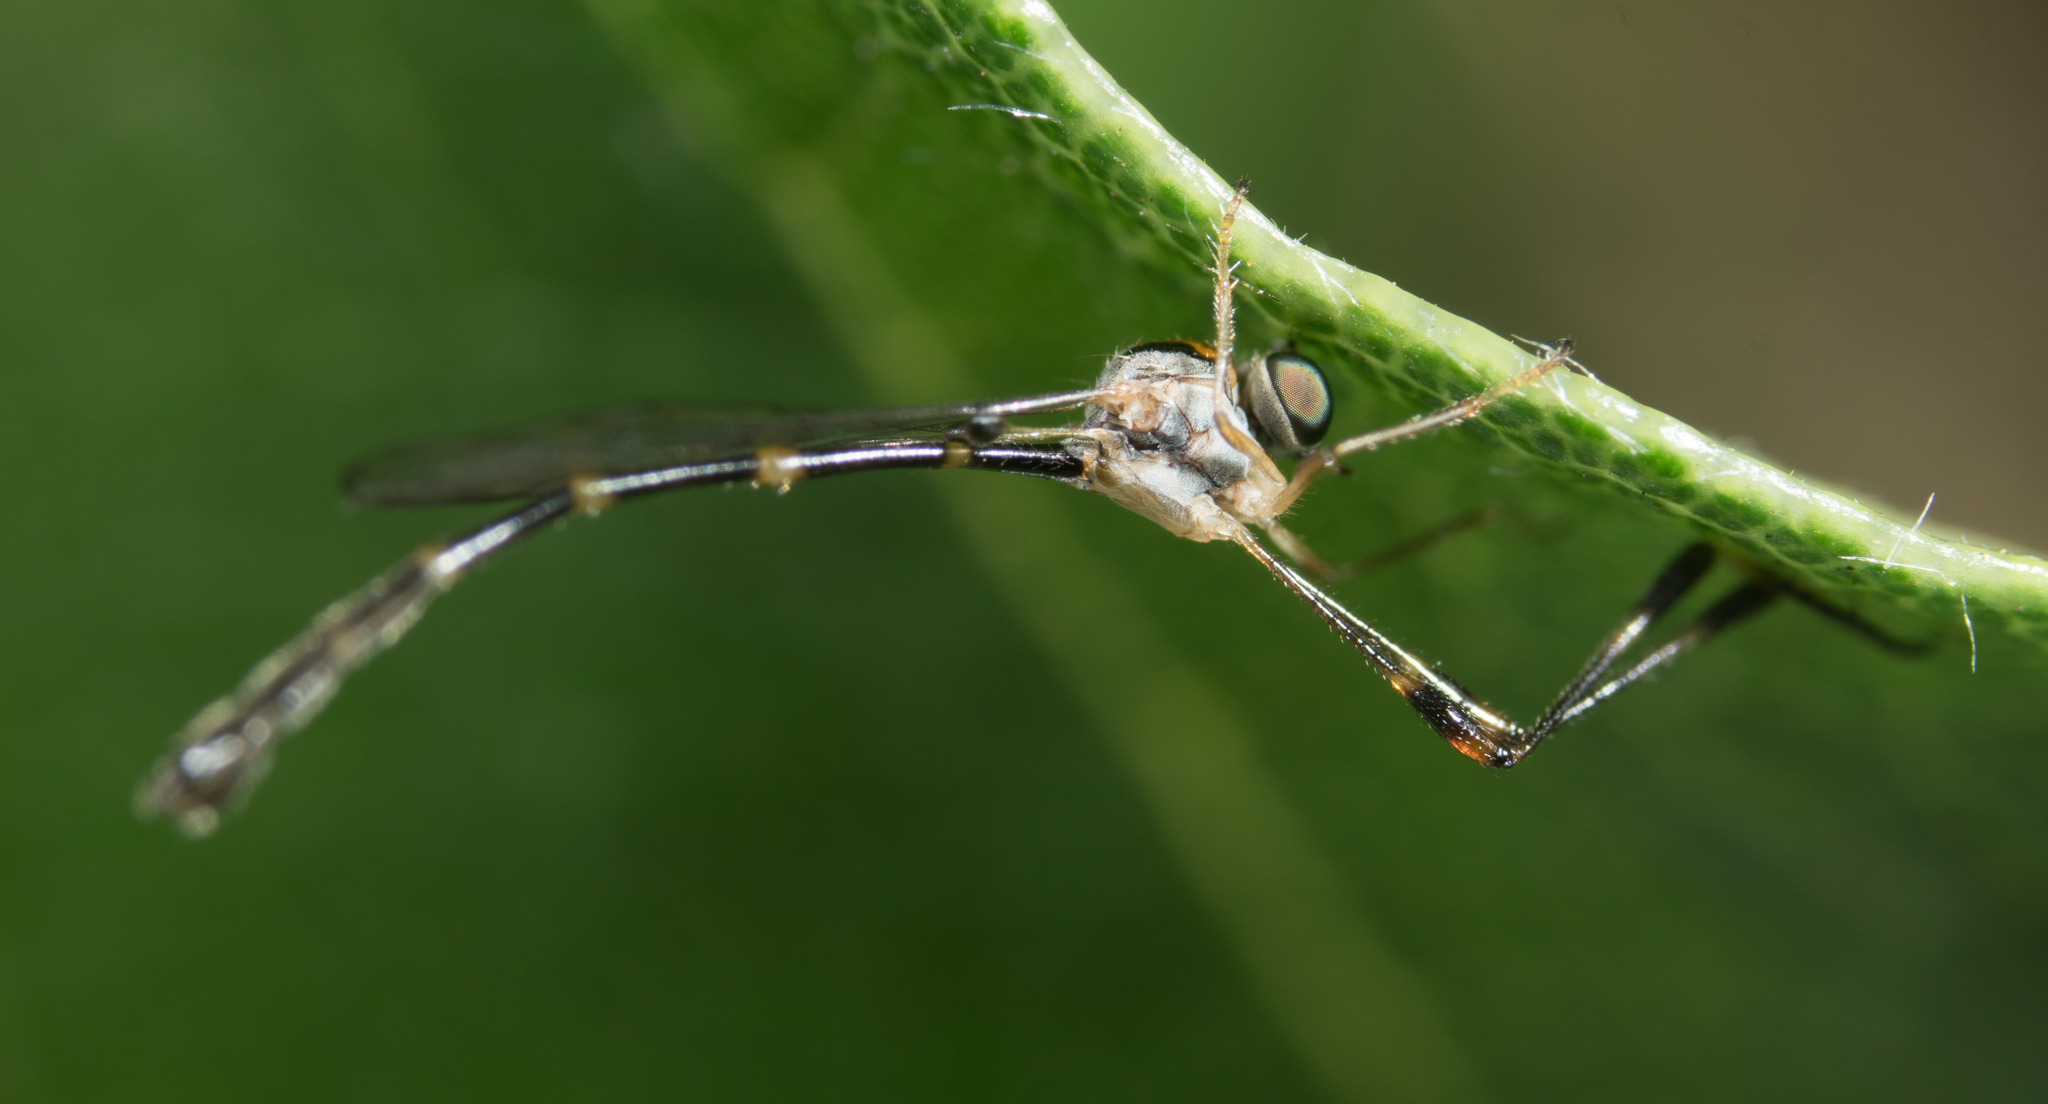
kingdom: Animalia
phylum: Arthropoda
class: Insecta
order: Diptera
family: Asilidae
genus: Leptopteromyia
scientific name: Leptopteromyia americana
